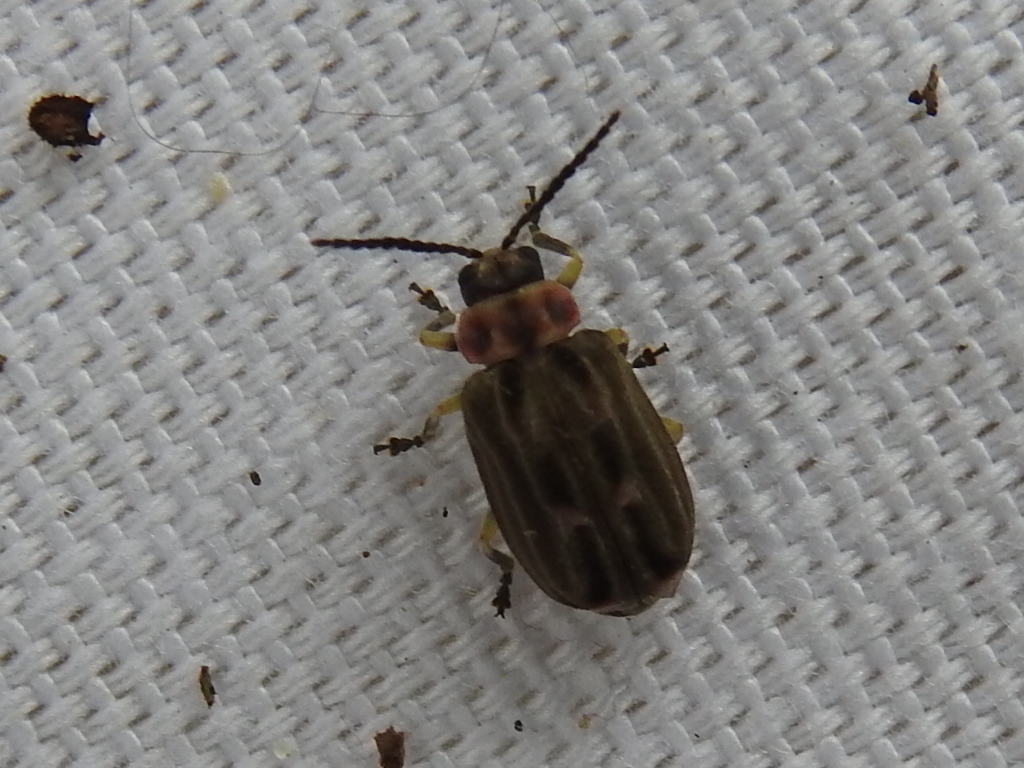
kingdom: Animalia
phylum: Arthropoda
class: Insecta
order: Coleoptera
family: Chrysomelidae
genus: Brucita
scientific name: Brucita marmorata
